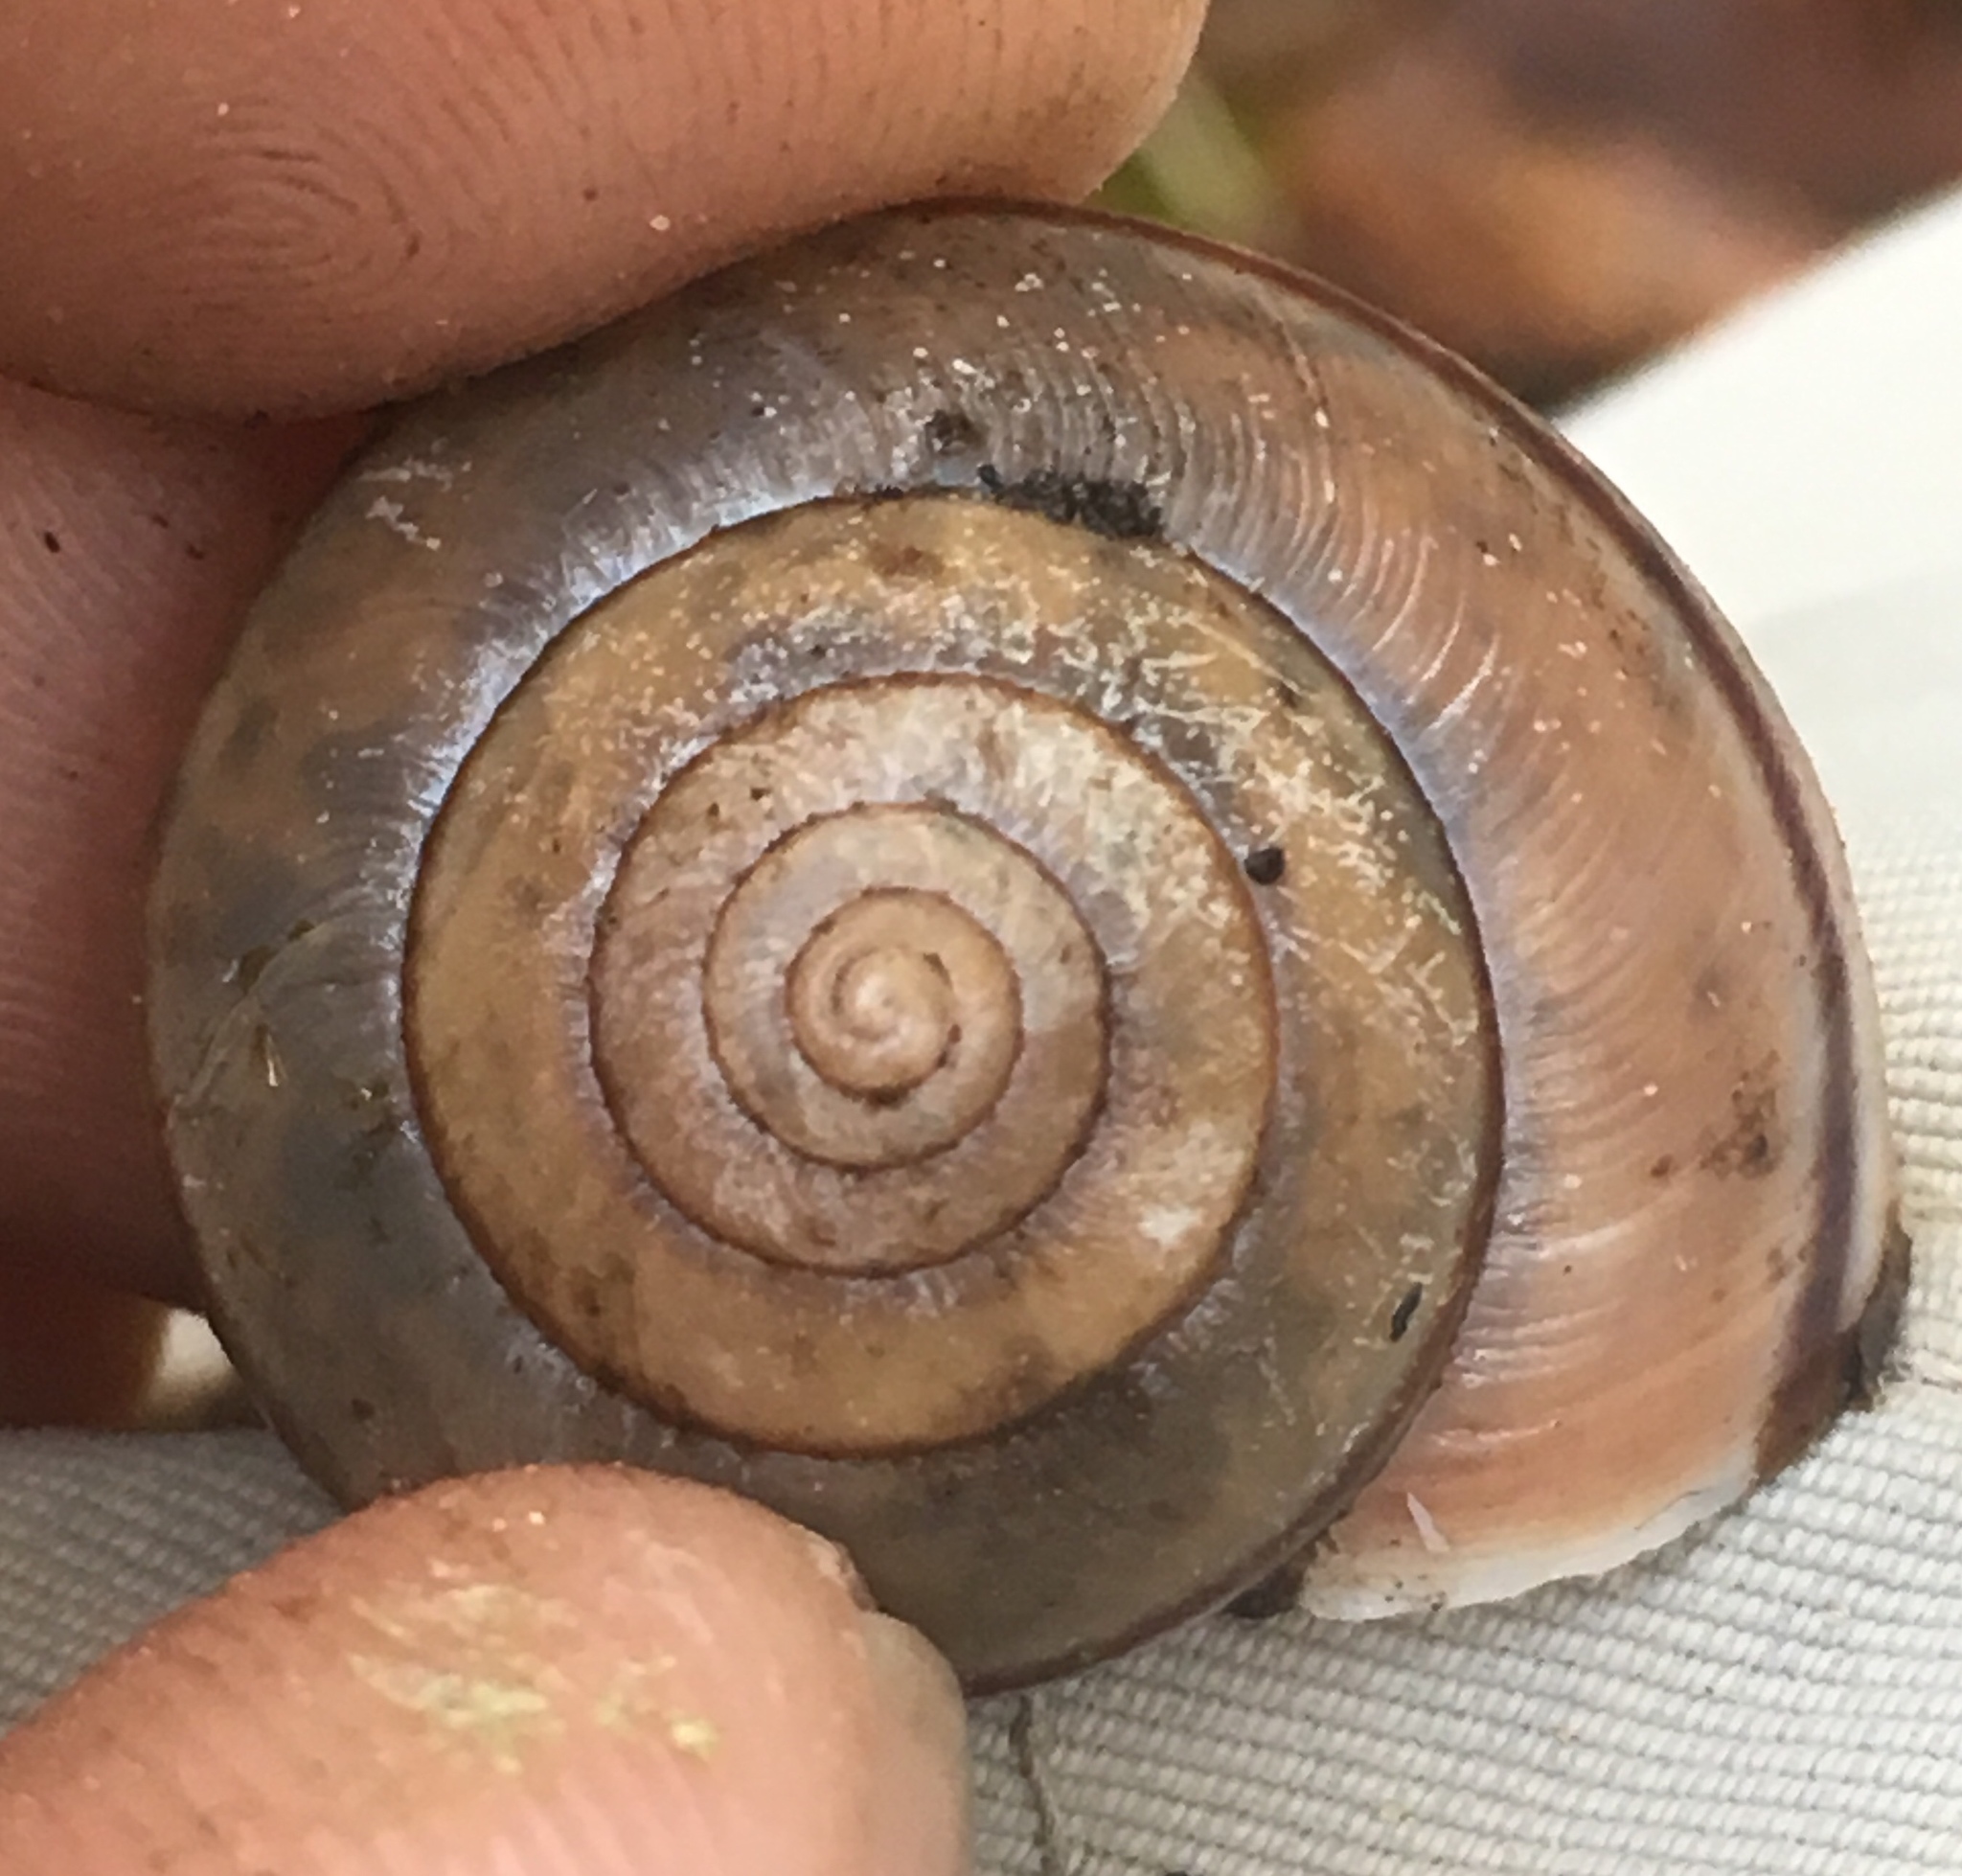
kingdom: Animalia
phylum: Mollusca
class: Gastropoda
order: Stylommatophora
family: Xanthonychidae
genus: Helminthoglypta
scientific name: Helminthoglypta phlyctaena
